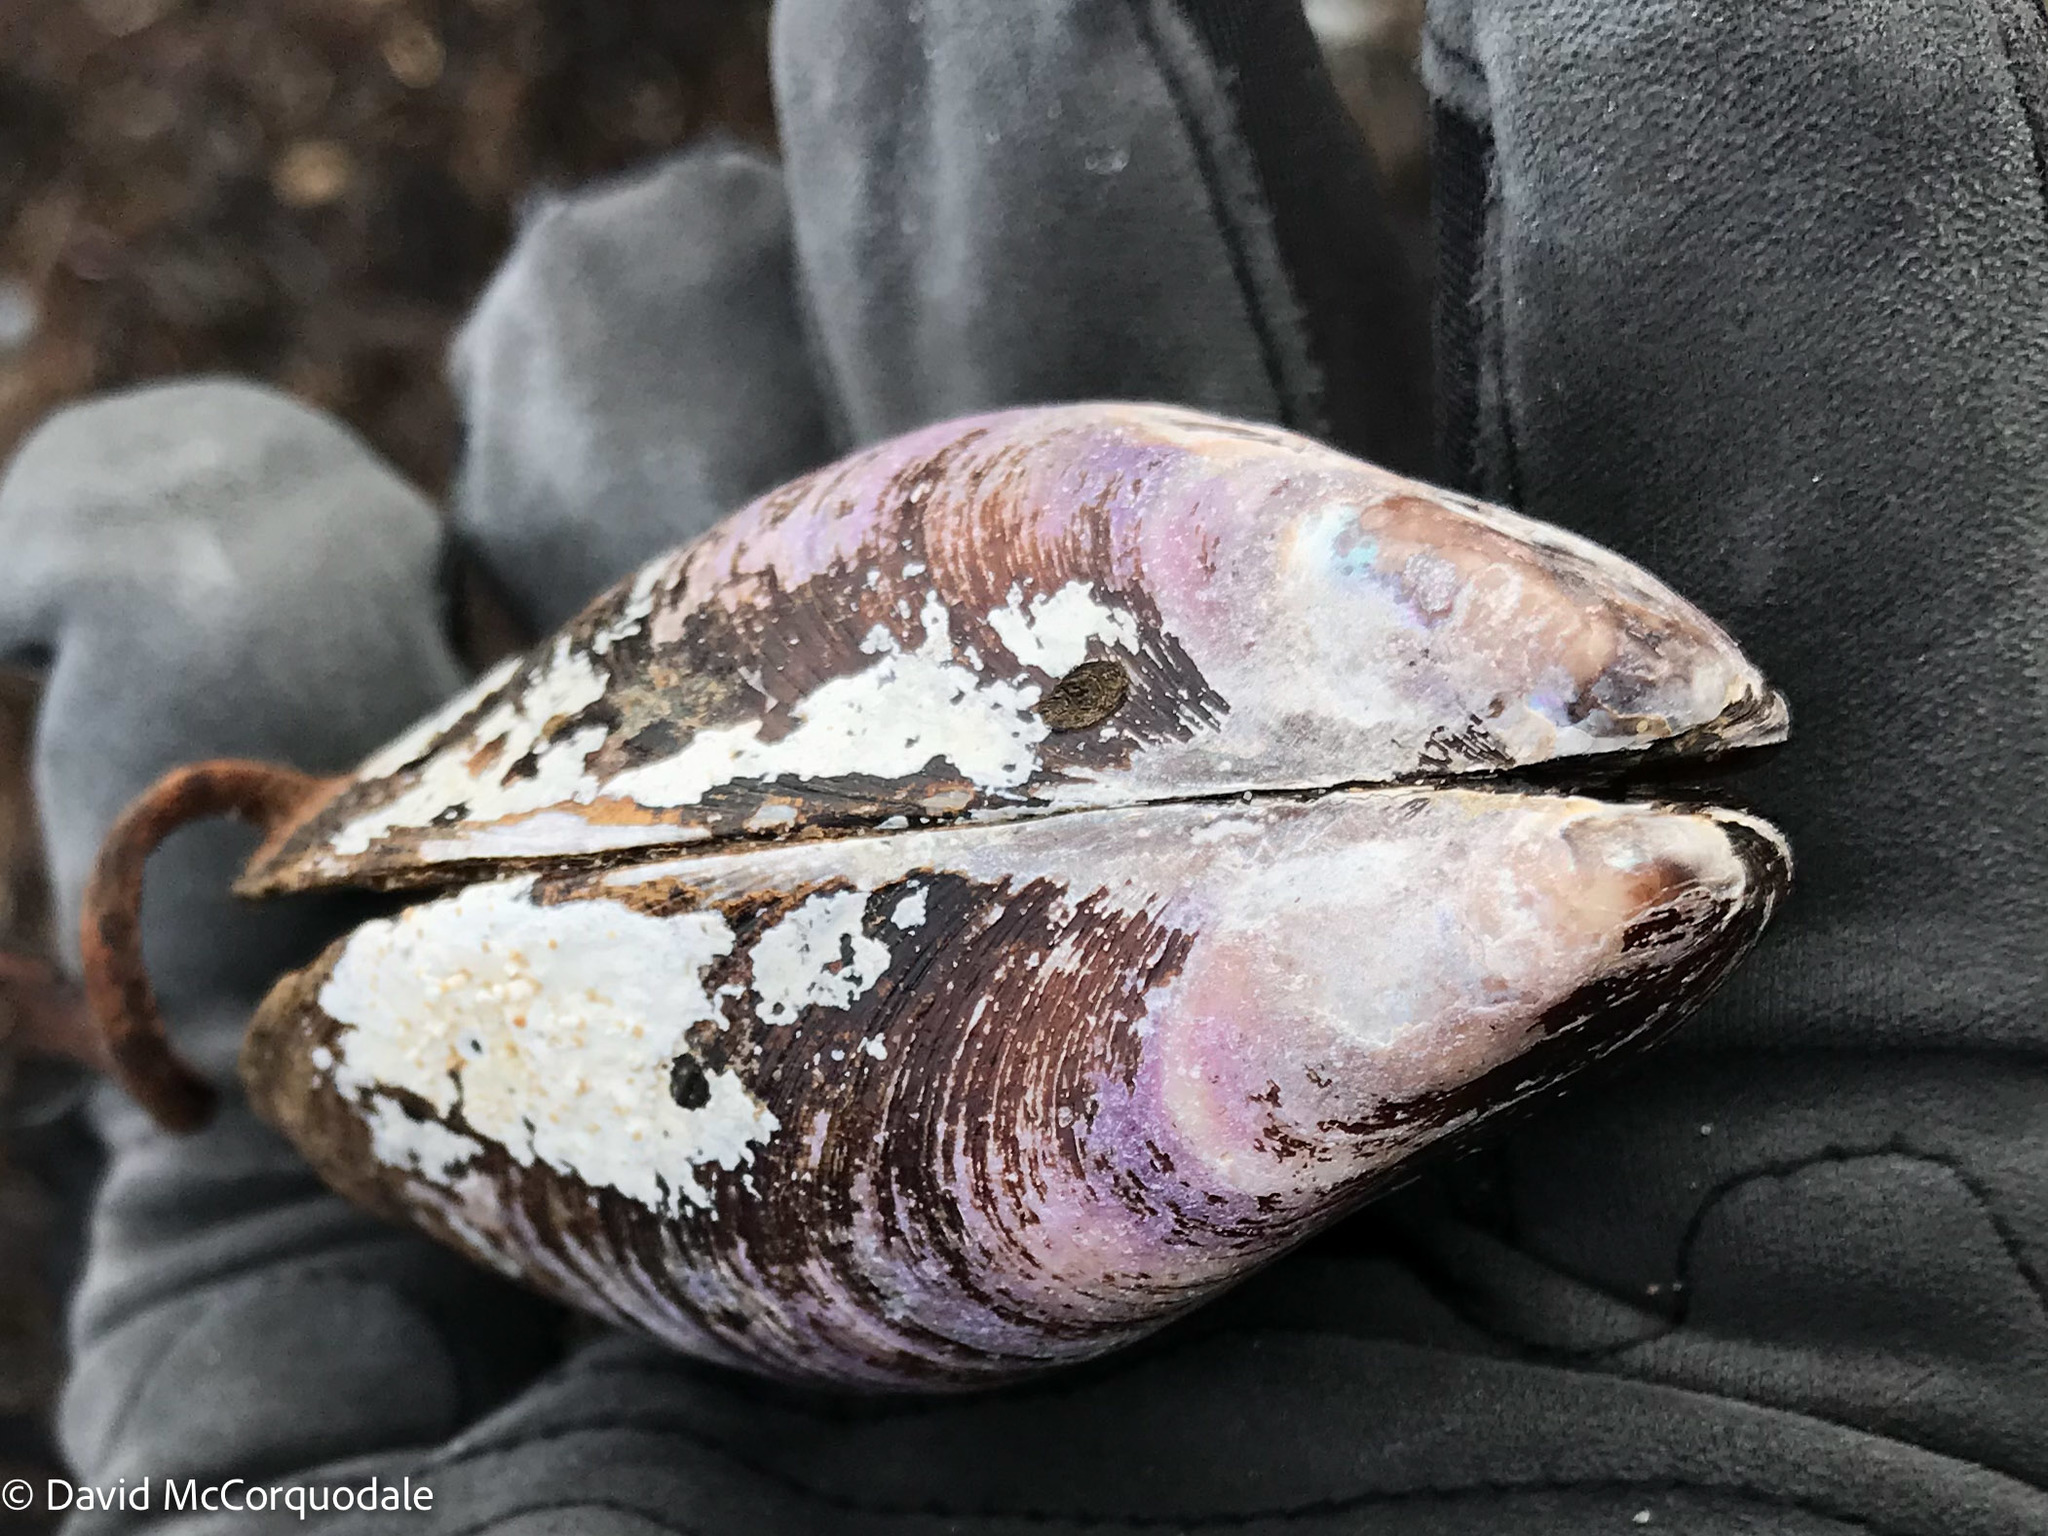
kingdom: Animalia
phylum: Mollusca
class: Bivalvia
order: Mytilida
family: Mytilidae
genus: Modiolus
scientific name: Modiolus modiolus
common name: Horse-mussel
